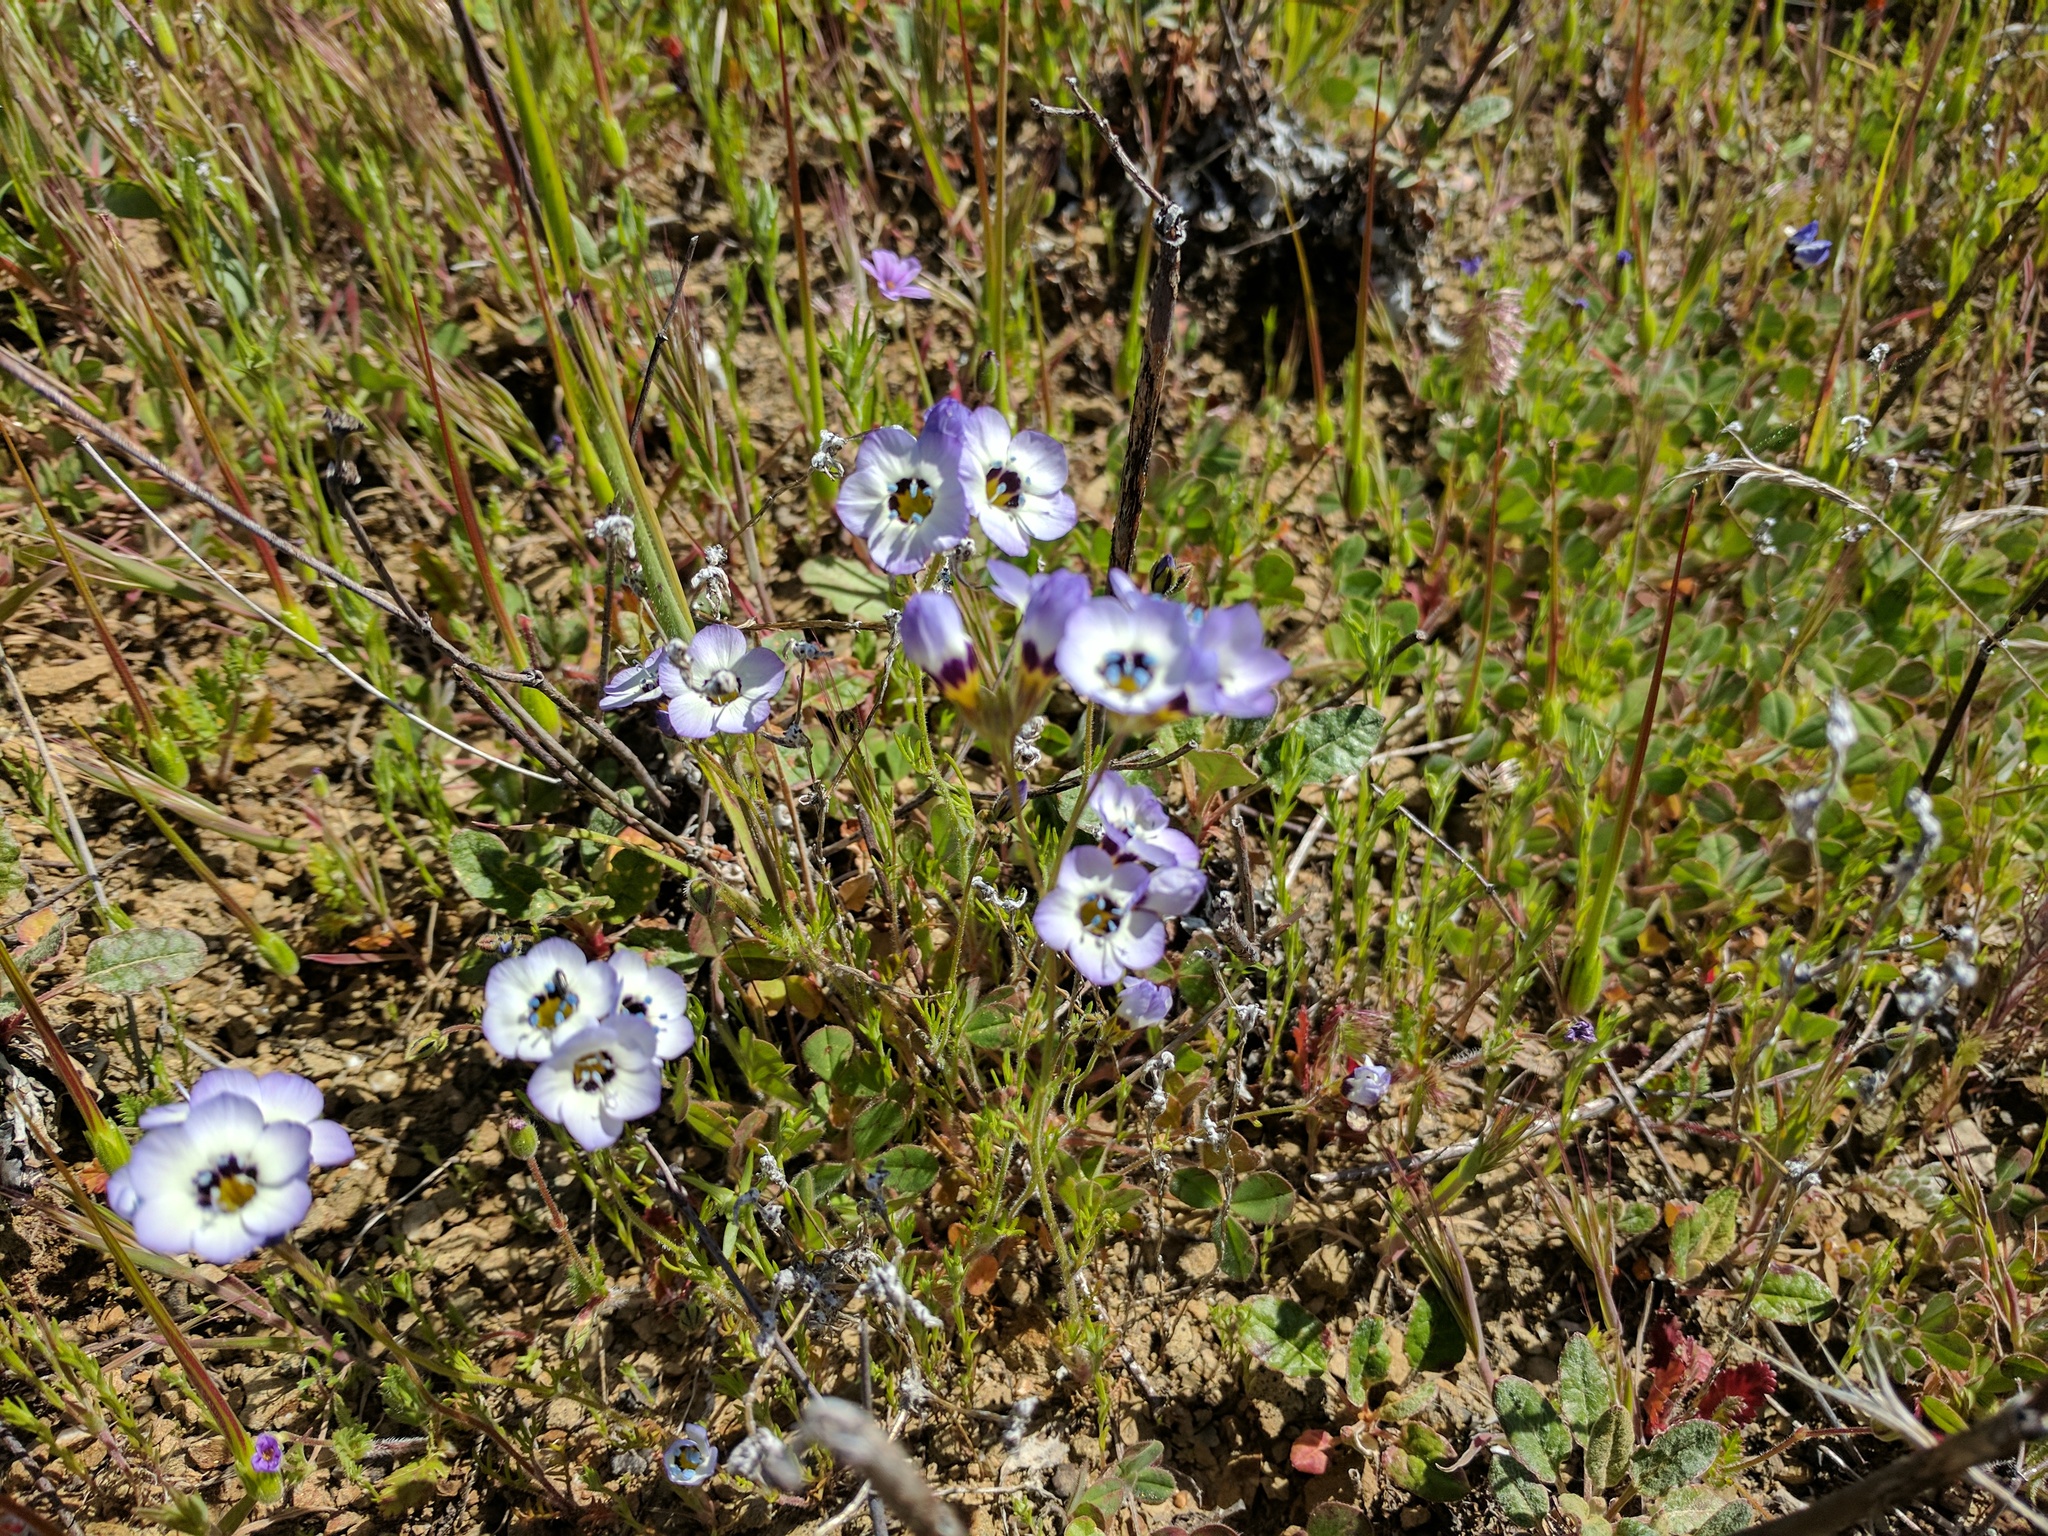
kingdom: Plantae
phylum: Tracheophyta
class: Magnoliopsida
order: Ericales
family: Polemoniaceae
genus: Gilia
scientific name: Gilia tricolor
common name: Bird's-eyes
